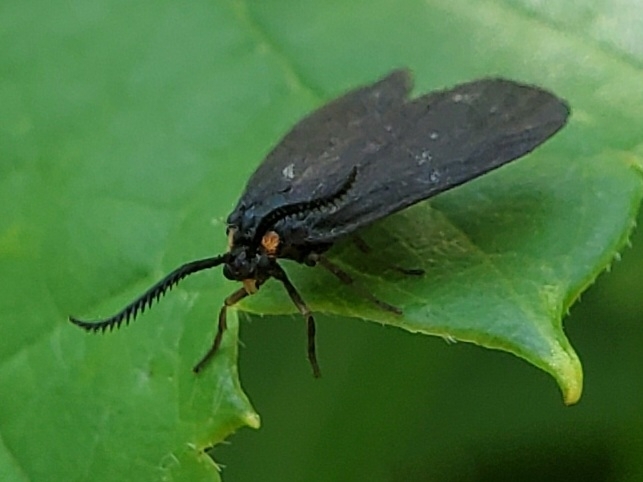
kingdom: Animalia
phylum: Arthropoda
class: Insecta
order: Lepidoptera
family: Zygaenidae
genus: Acoloithus
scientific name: Acoloithus falsarius
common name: Clemens' false skeletonizer
